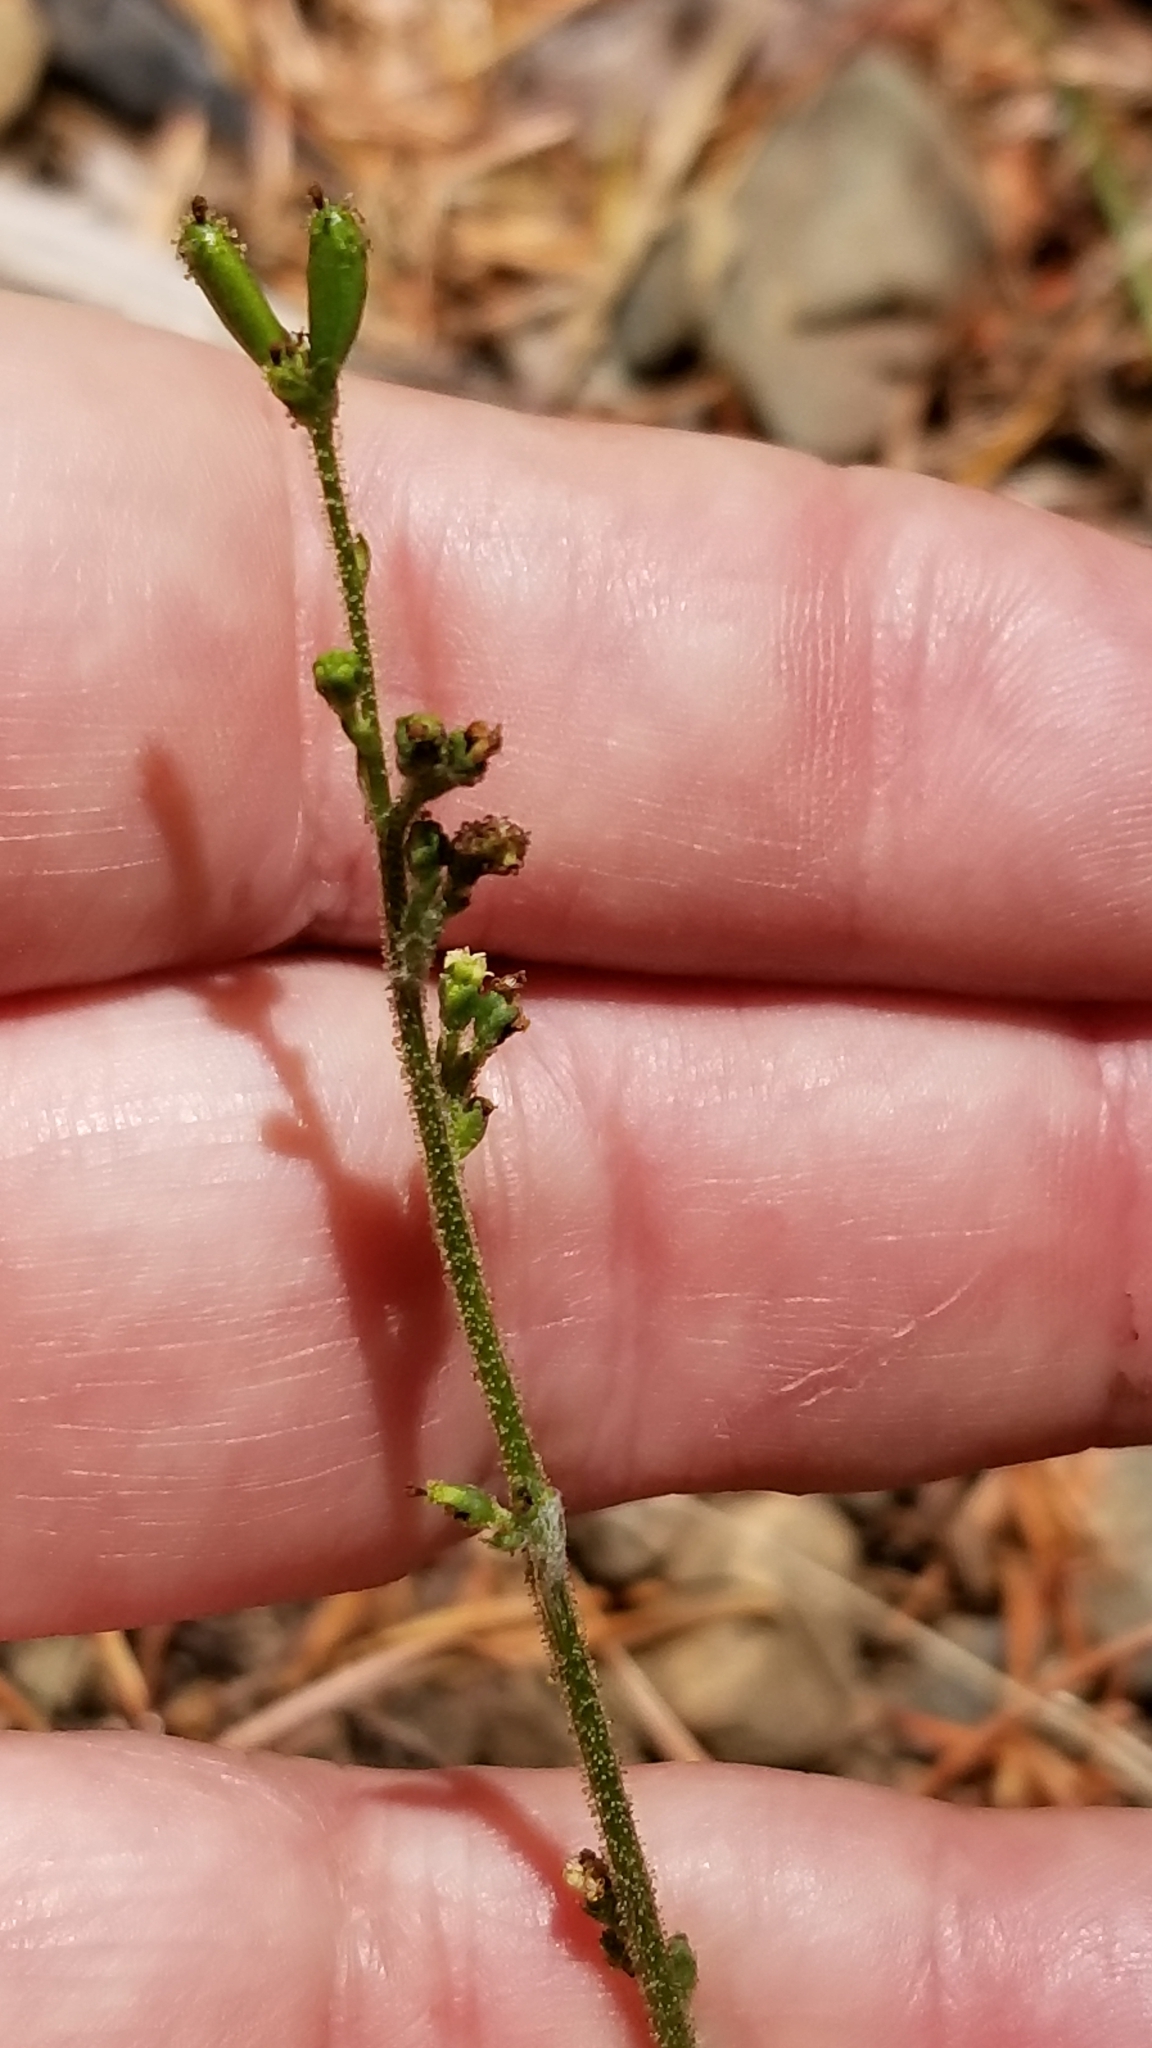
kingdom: Plantae
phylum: Tracheophyta
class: Magnoliopsida
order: Asterales
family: Asteraceae
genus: Adenocaulon
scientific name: Adenocaulon bicolor
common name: Trailplant
